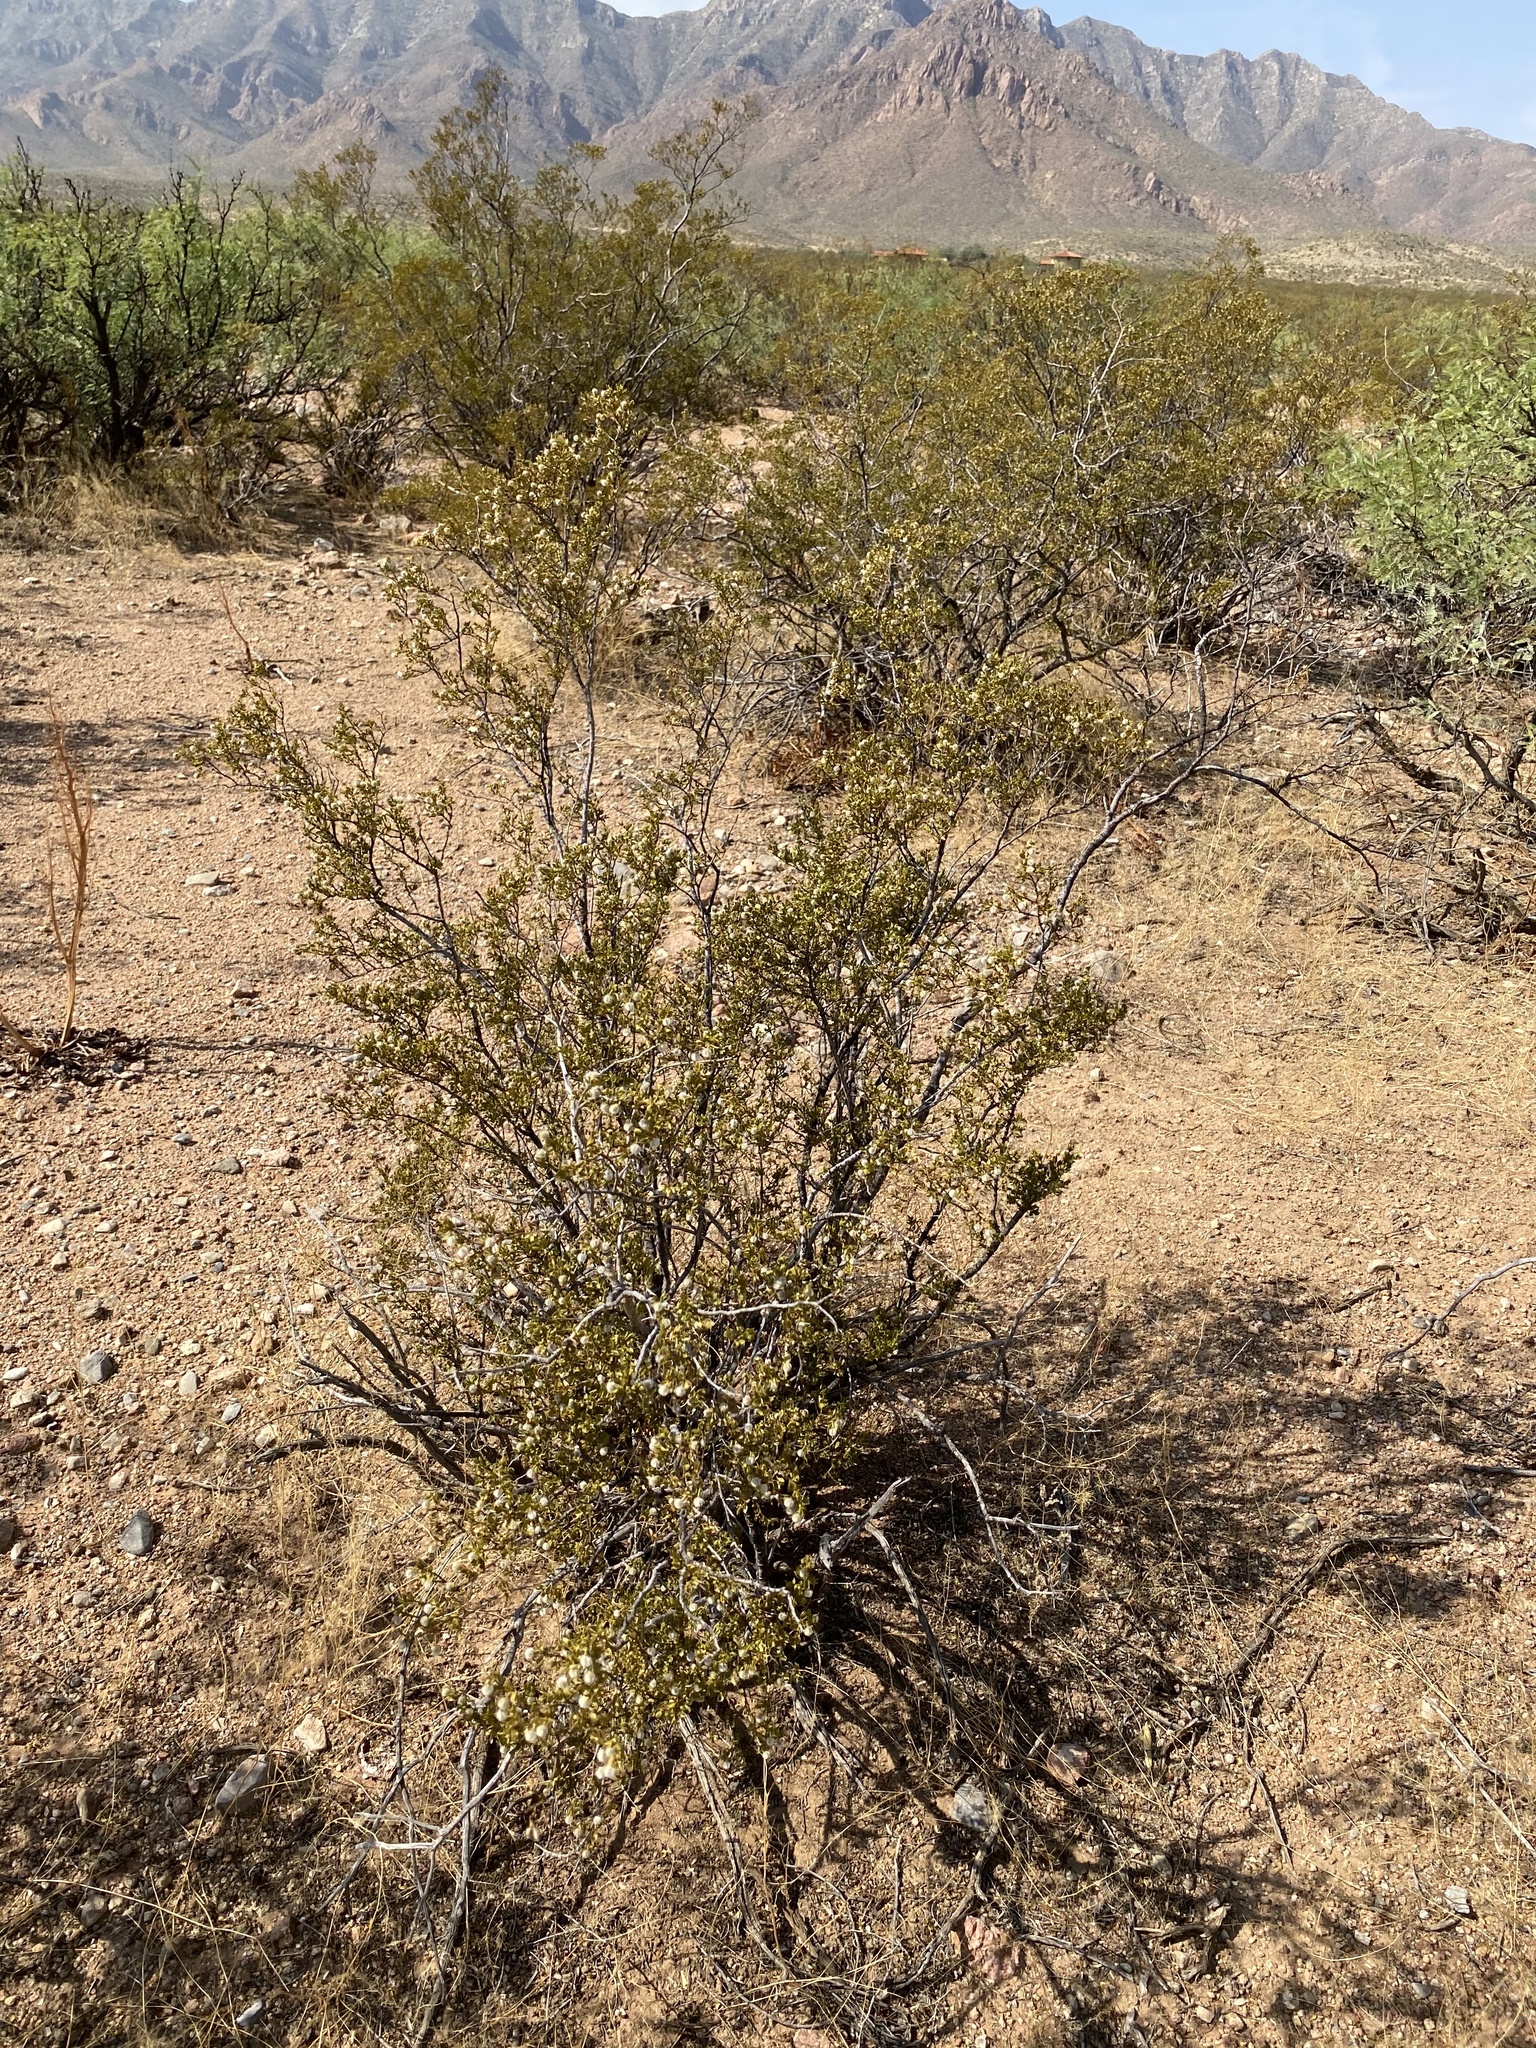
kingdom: Plantae
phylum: Tracheophyta
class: Magnoliopsida
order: Zygophyllales
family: Zygophyllaceae
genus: Larrea
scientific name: Larrea tridentata
